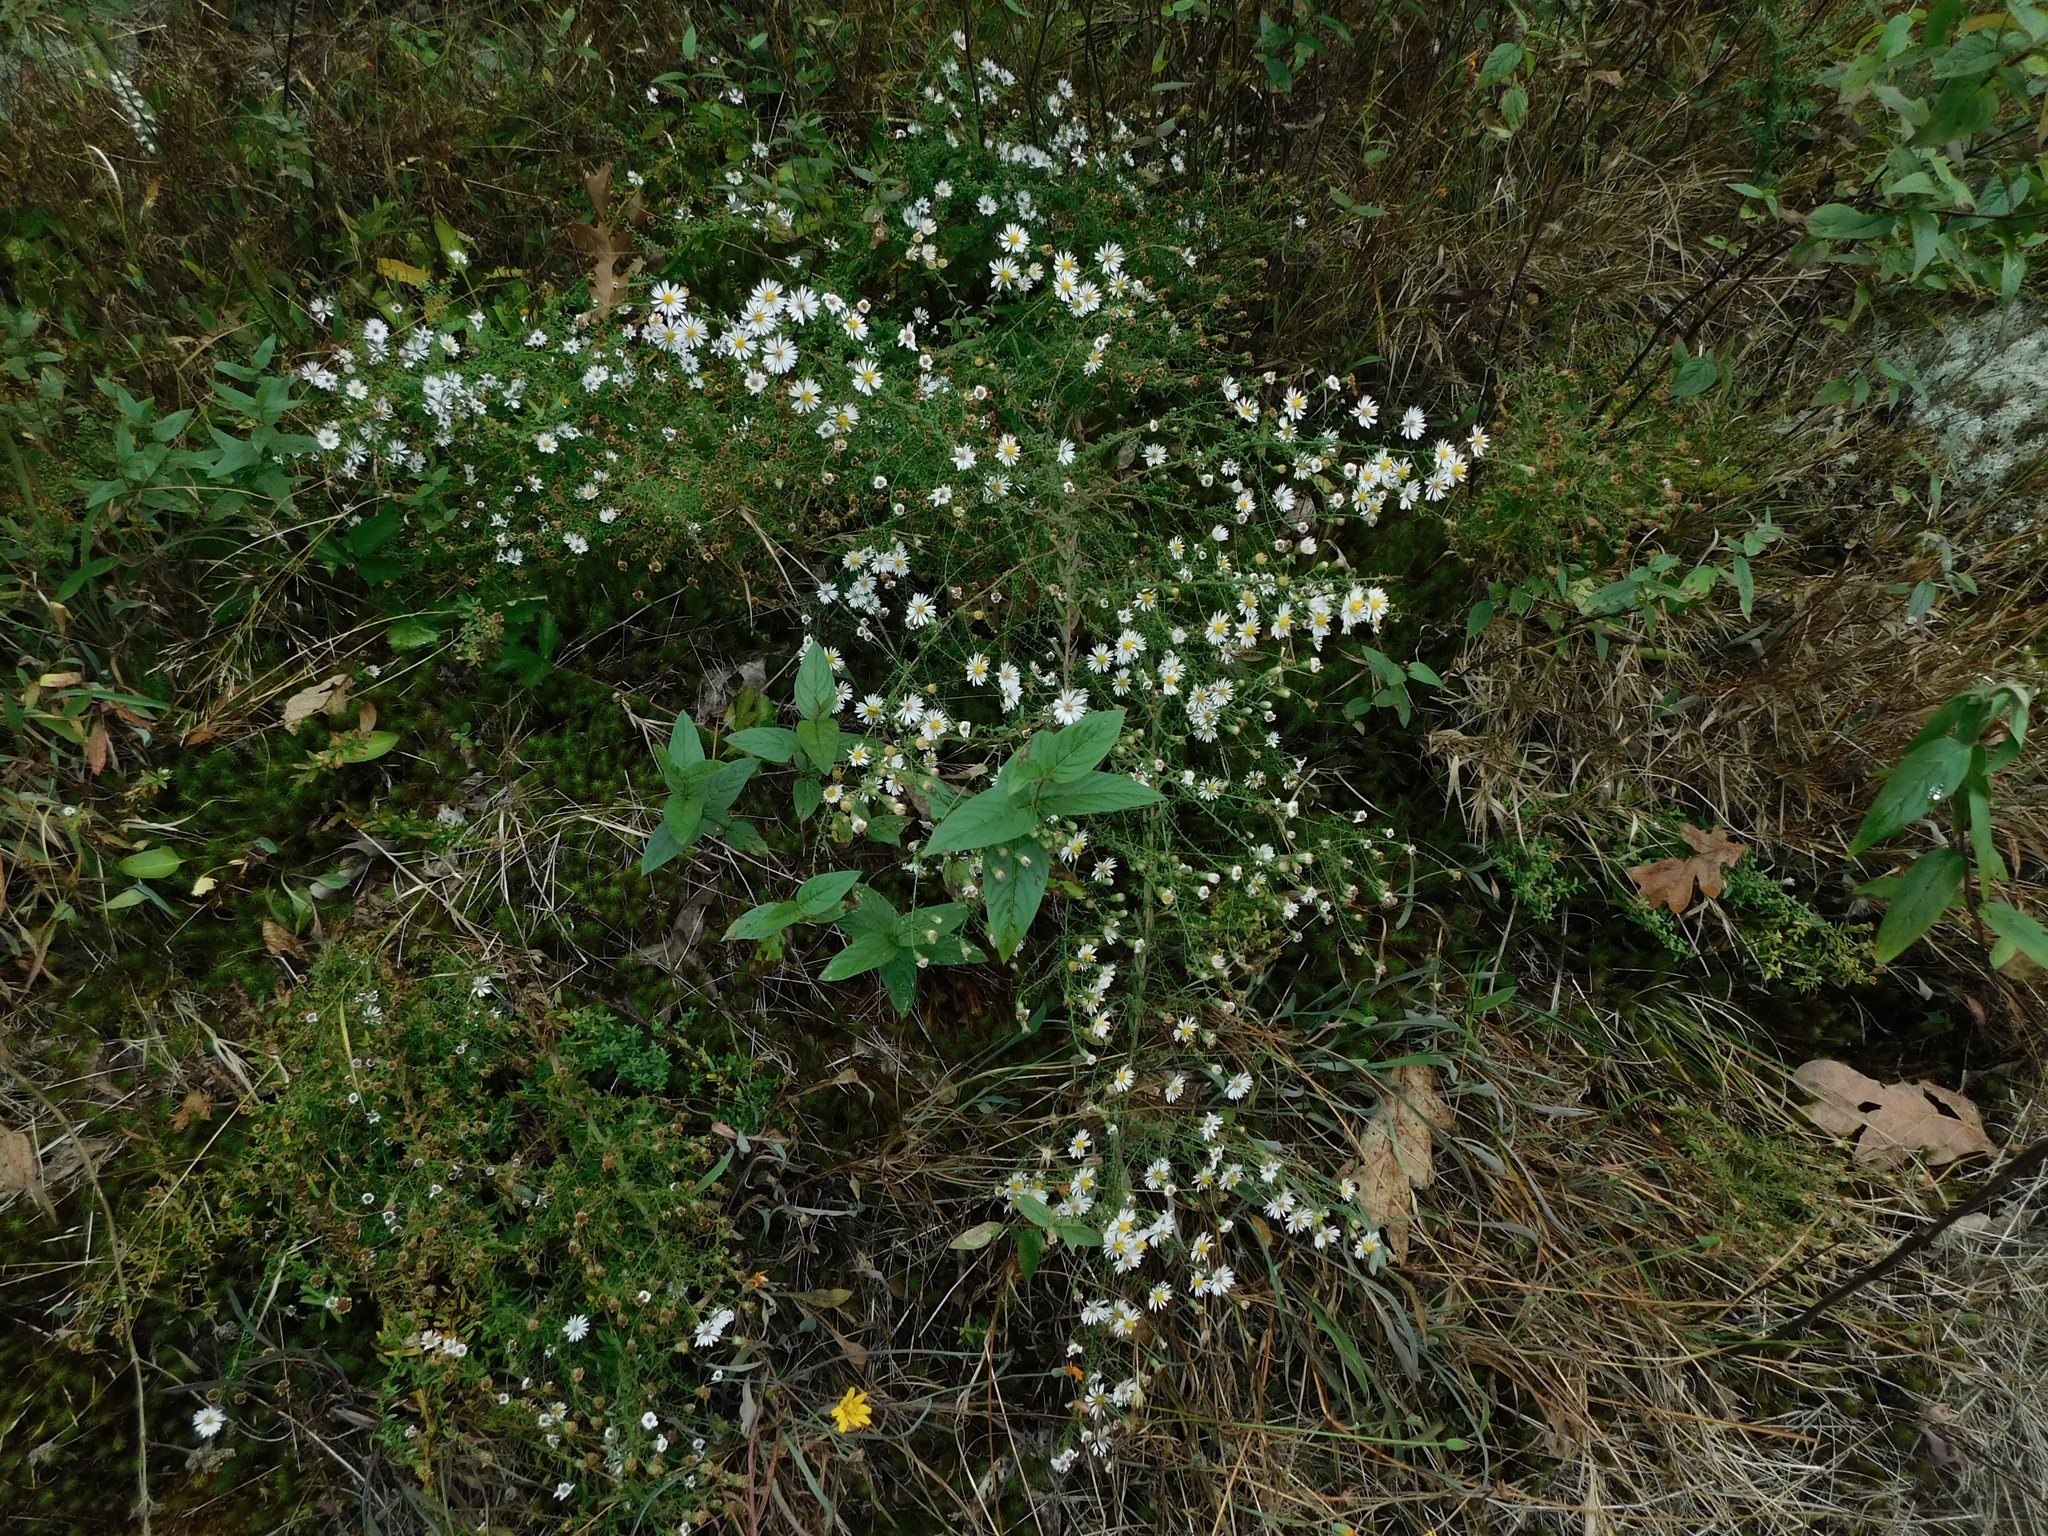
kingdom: Plantae
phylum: Tracheophyta
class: Magnoliopsida
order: Asterales
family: Asteraceae
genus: Symphyotrichum
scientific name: Symphyotrichum dumosum
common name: Bushy aster
